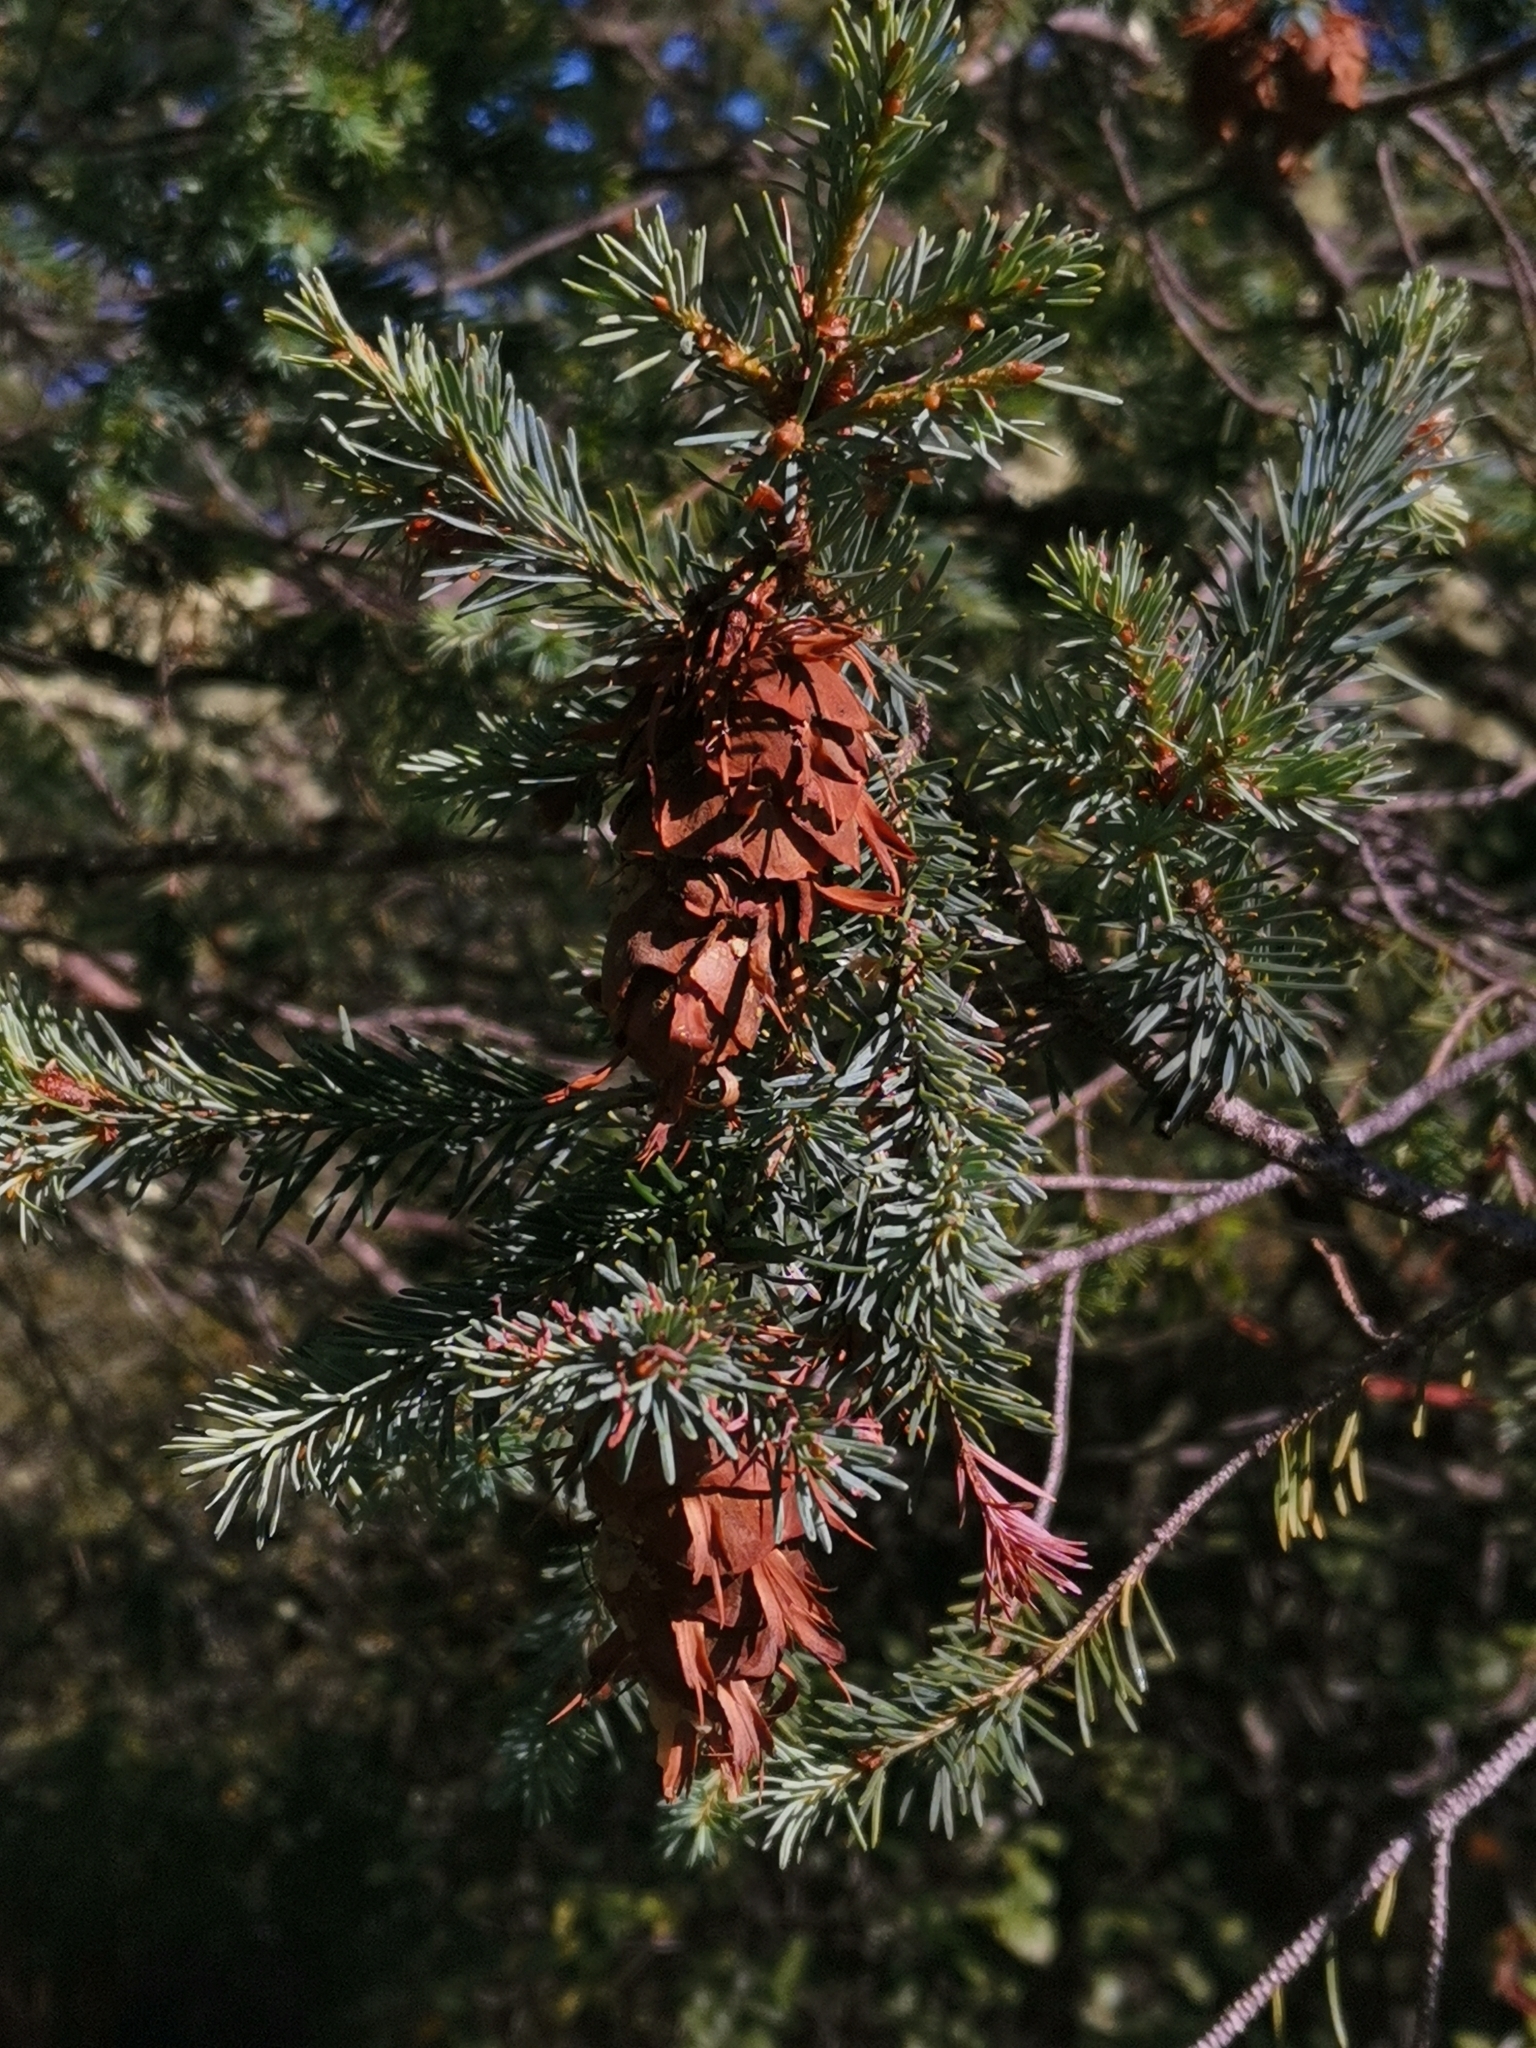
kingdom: Plantae
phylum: Tracheophyta
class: Pinopsida
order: Pinales
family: Pinaceae
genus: Pseudotsuga
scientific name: Pseudotsuga menziesii
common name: Douglas fir
